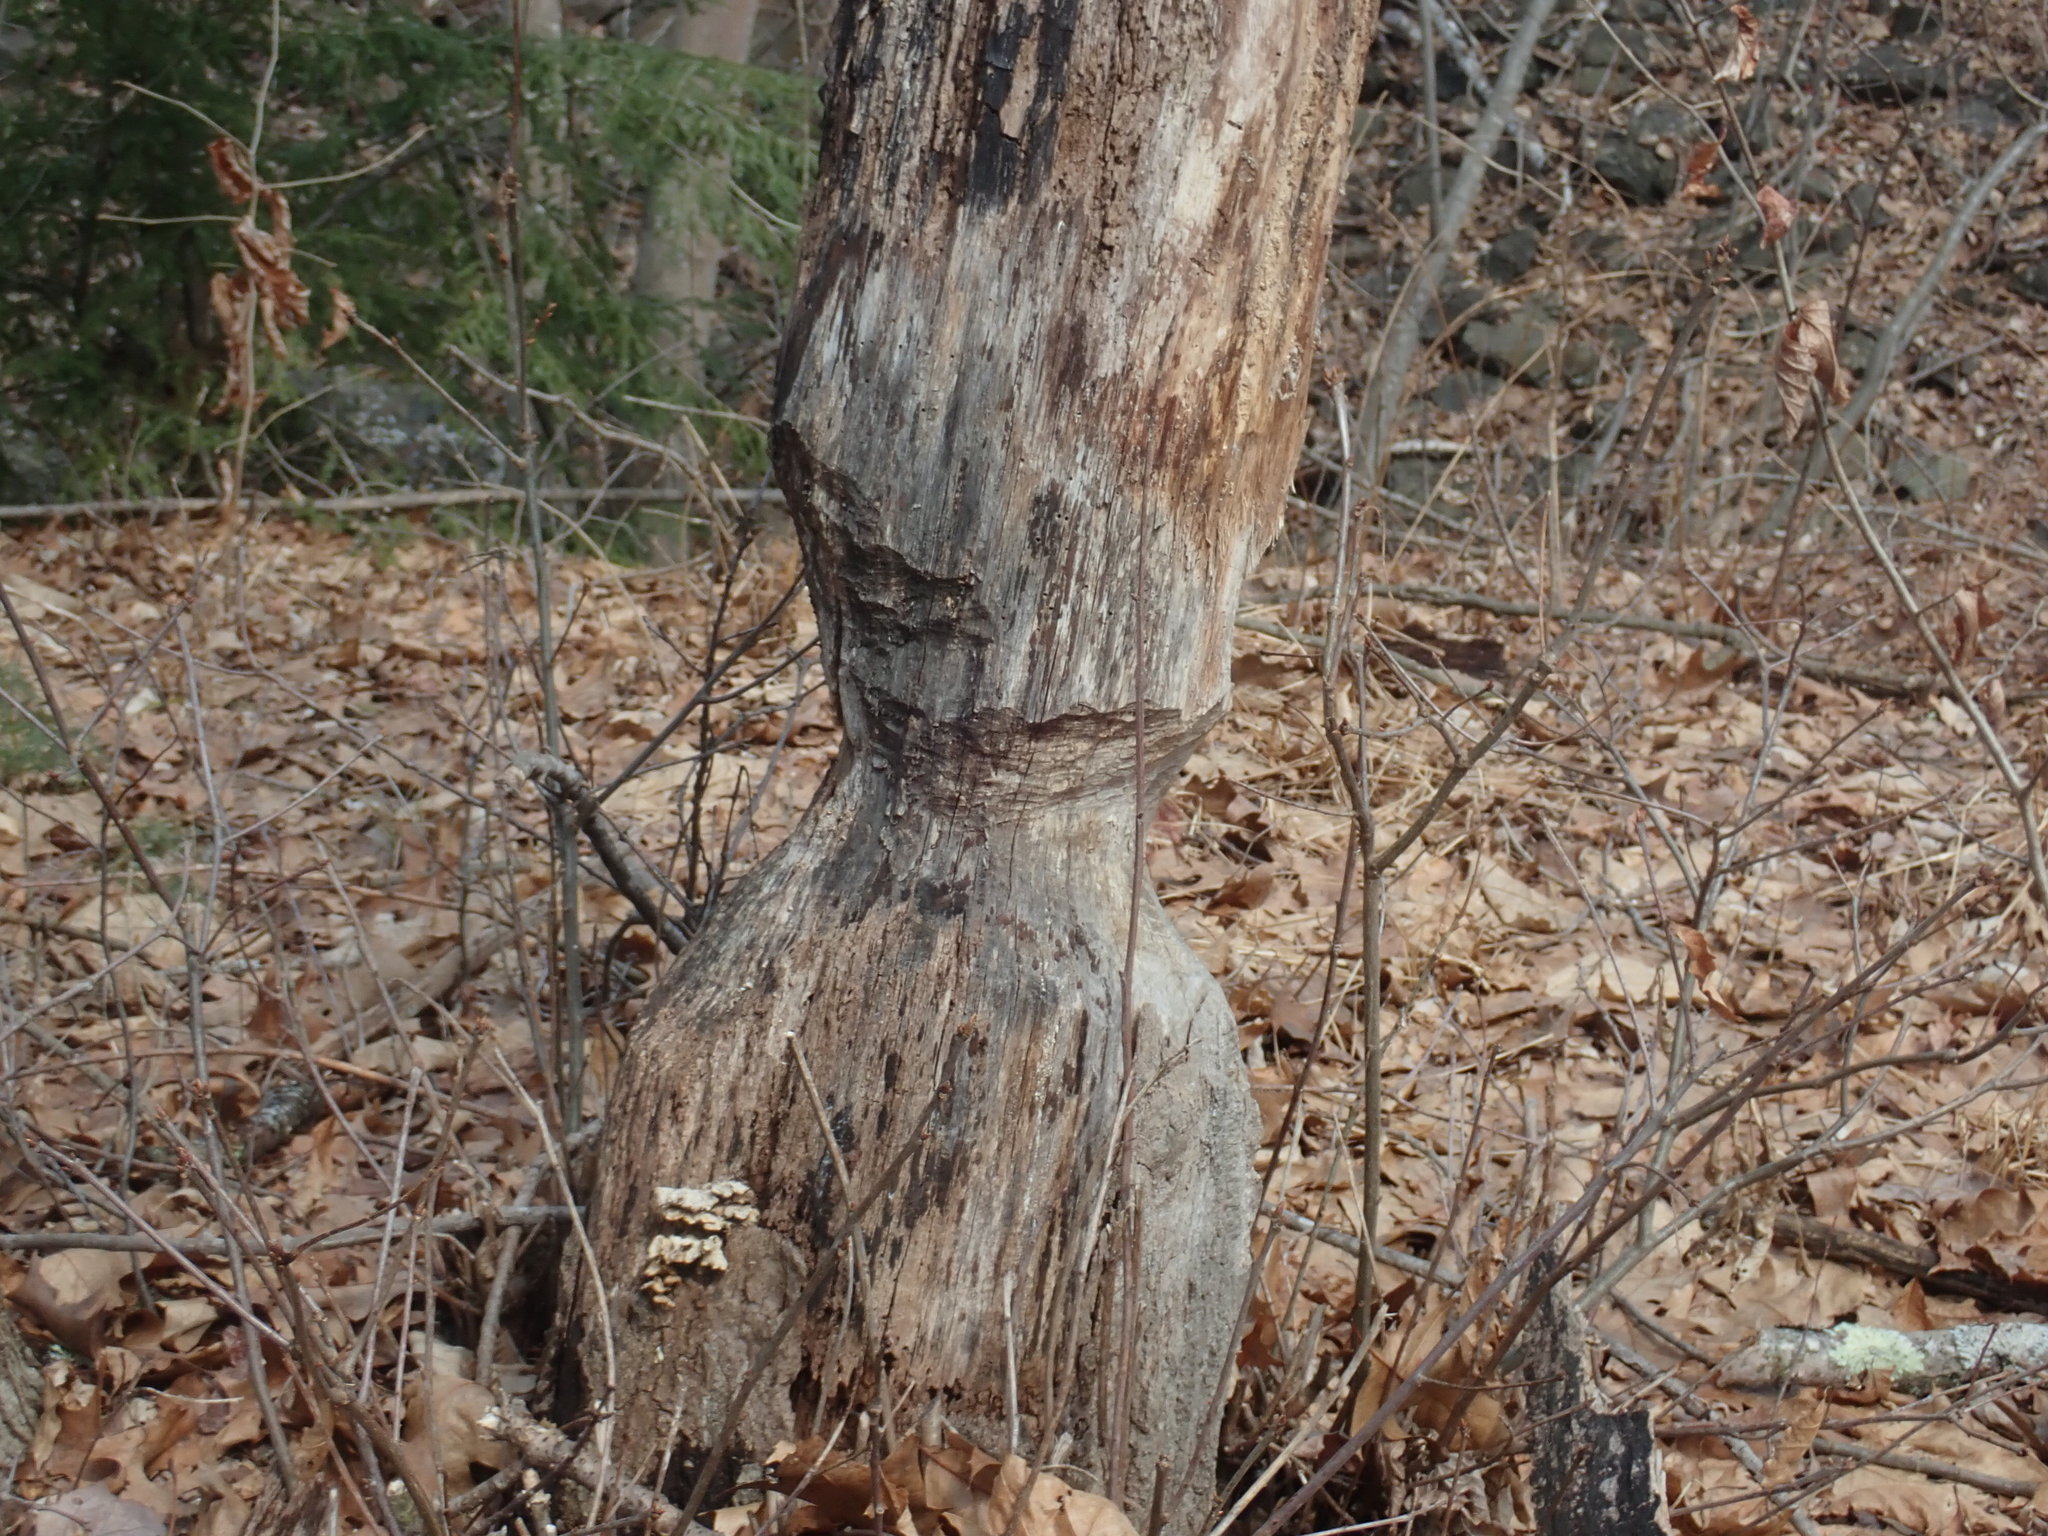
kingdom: Animalia
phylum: Chordata
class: Mammalia
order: Rodentia
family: Castoridae
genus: Castor
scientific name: Castor canadensis
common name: American beaver
